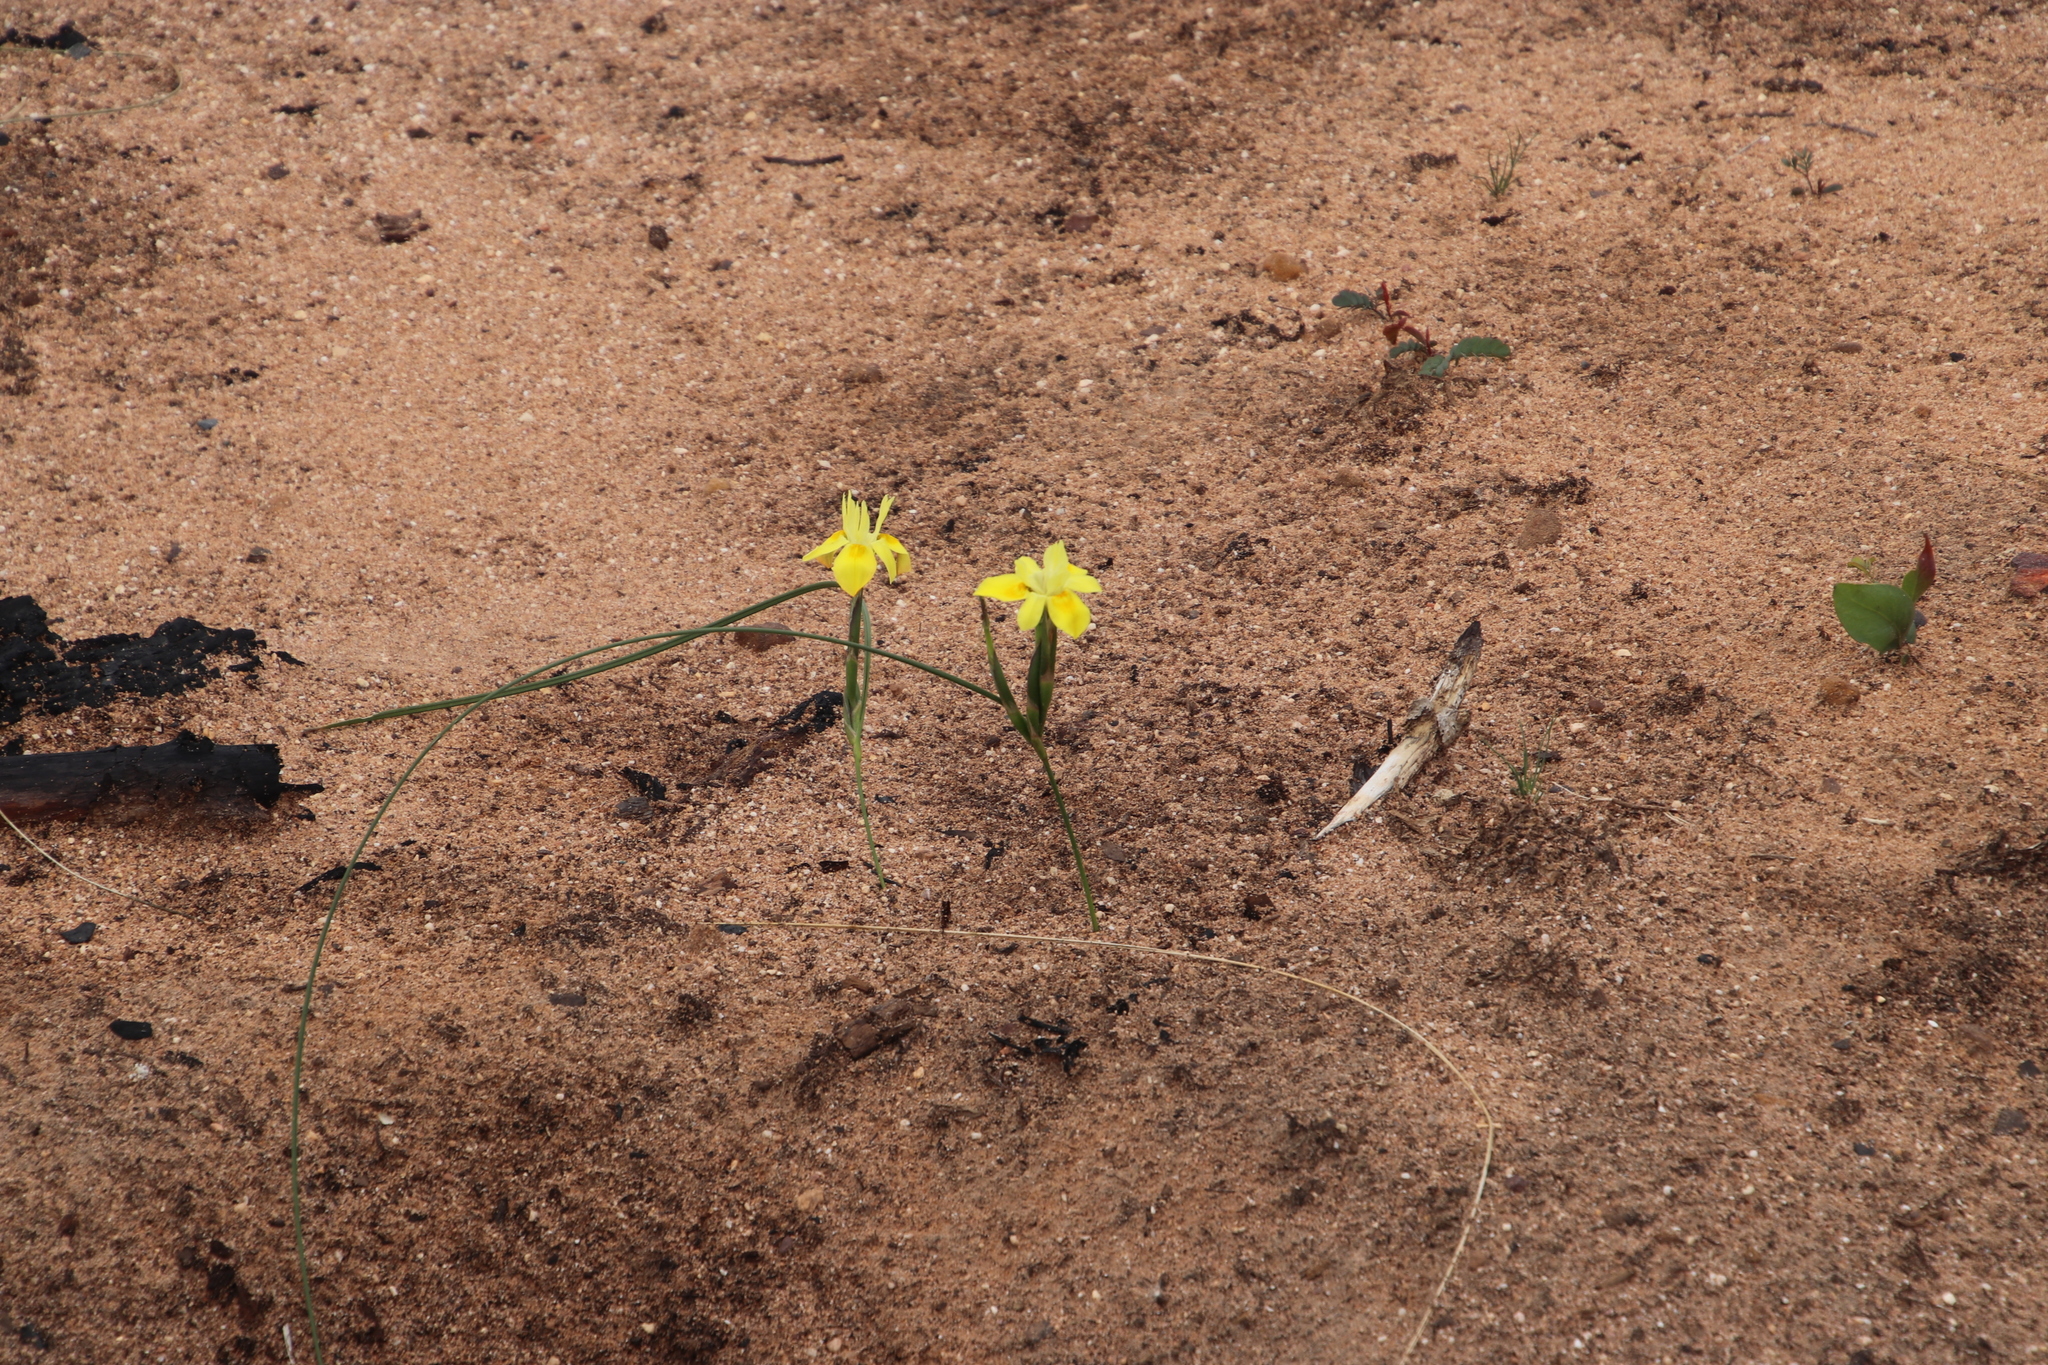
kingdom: Plantae
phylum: Tracheophyta
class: Liliopsida
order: Asparagales
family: Iridaceae
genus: Moraea
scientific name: Moraea fugax
